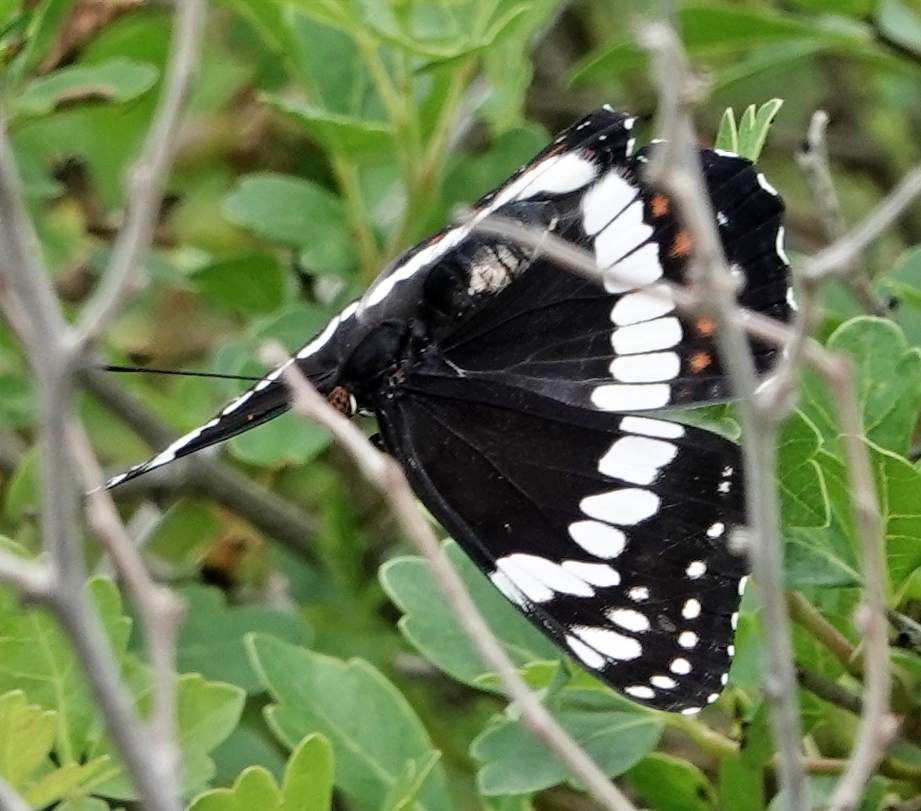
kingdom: Animalia
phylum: Arthropoda
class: Insecta
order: Lepidoptera
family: Nymphalidae
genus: Limenitis
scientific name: Limenitis weidemeyerii
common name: Weidemeyer's admiral
